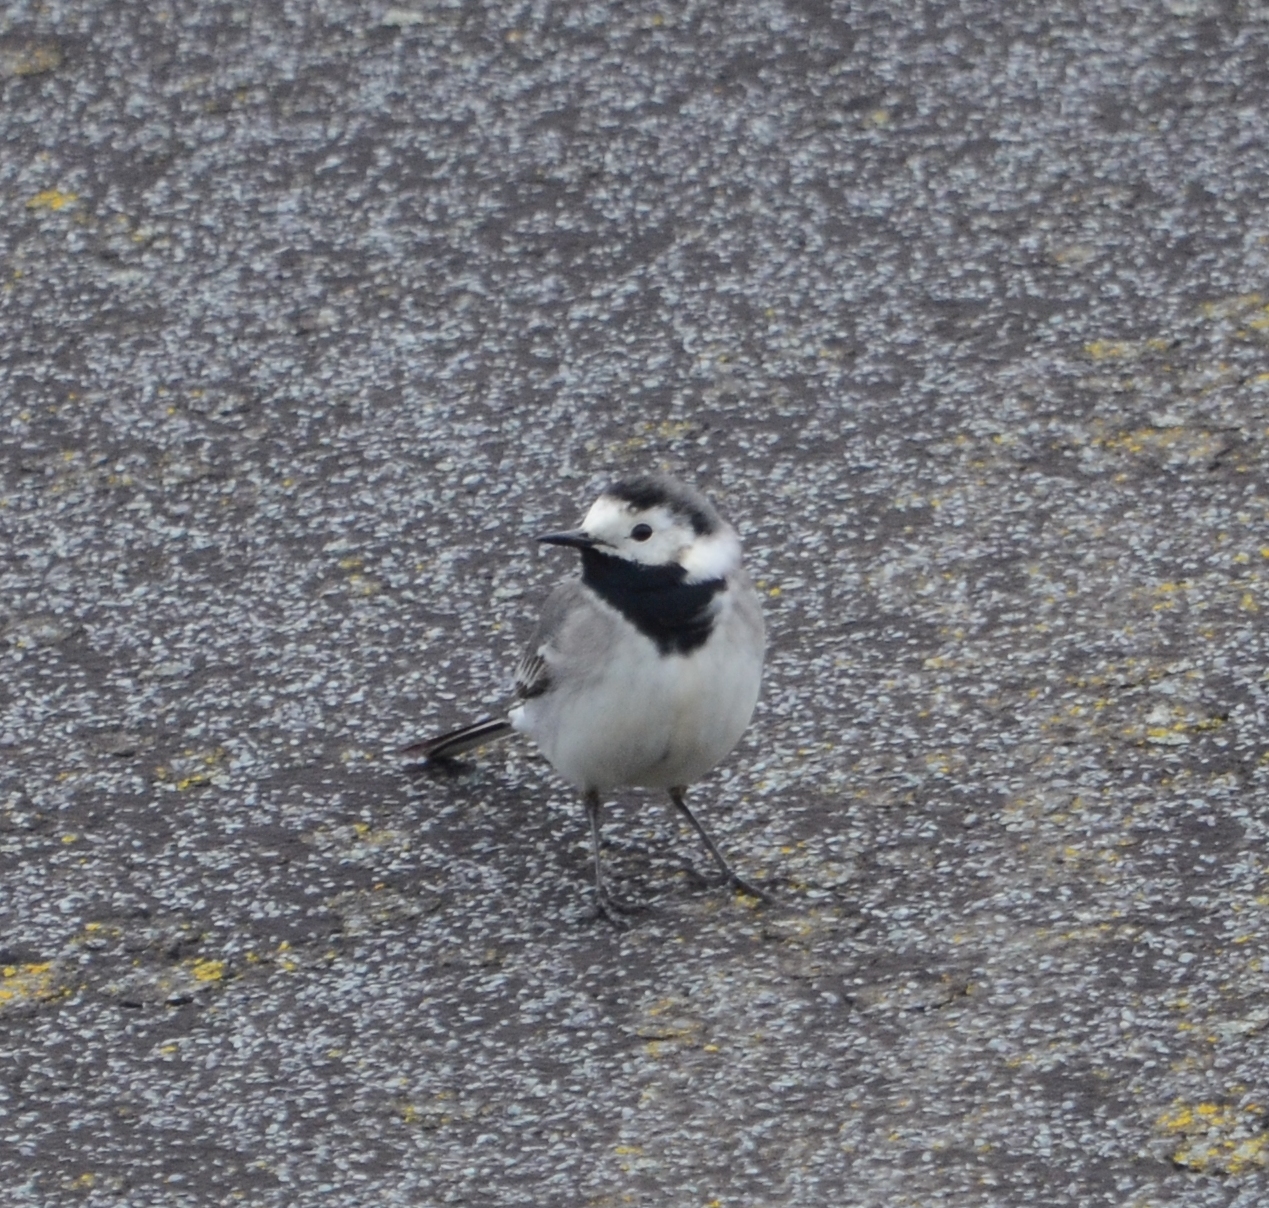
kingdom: Animalia
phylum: Chordata
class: Aves
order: Passeriformes
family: Motacillidae
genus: Motacilla
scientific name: Motacilla alba
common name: White wagtail
